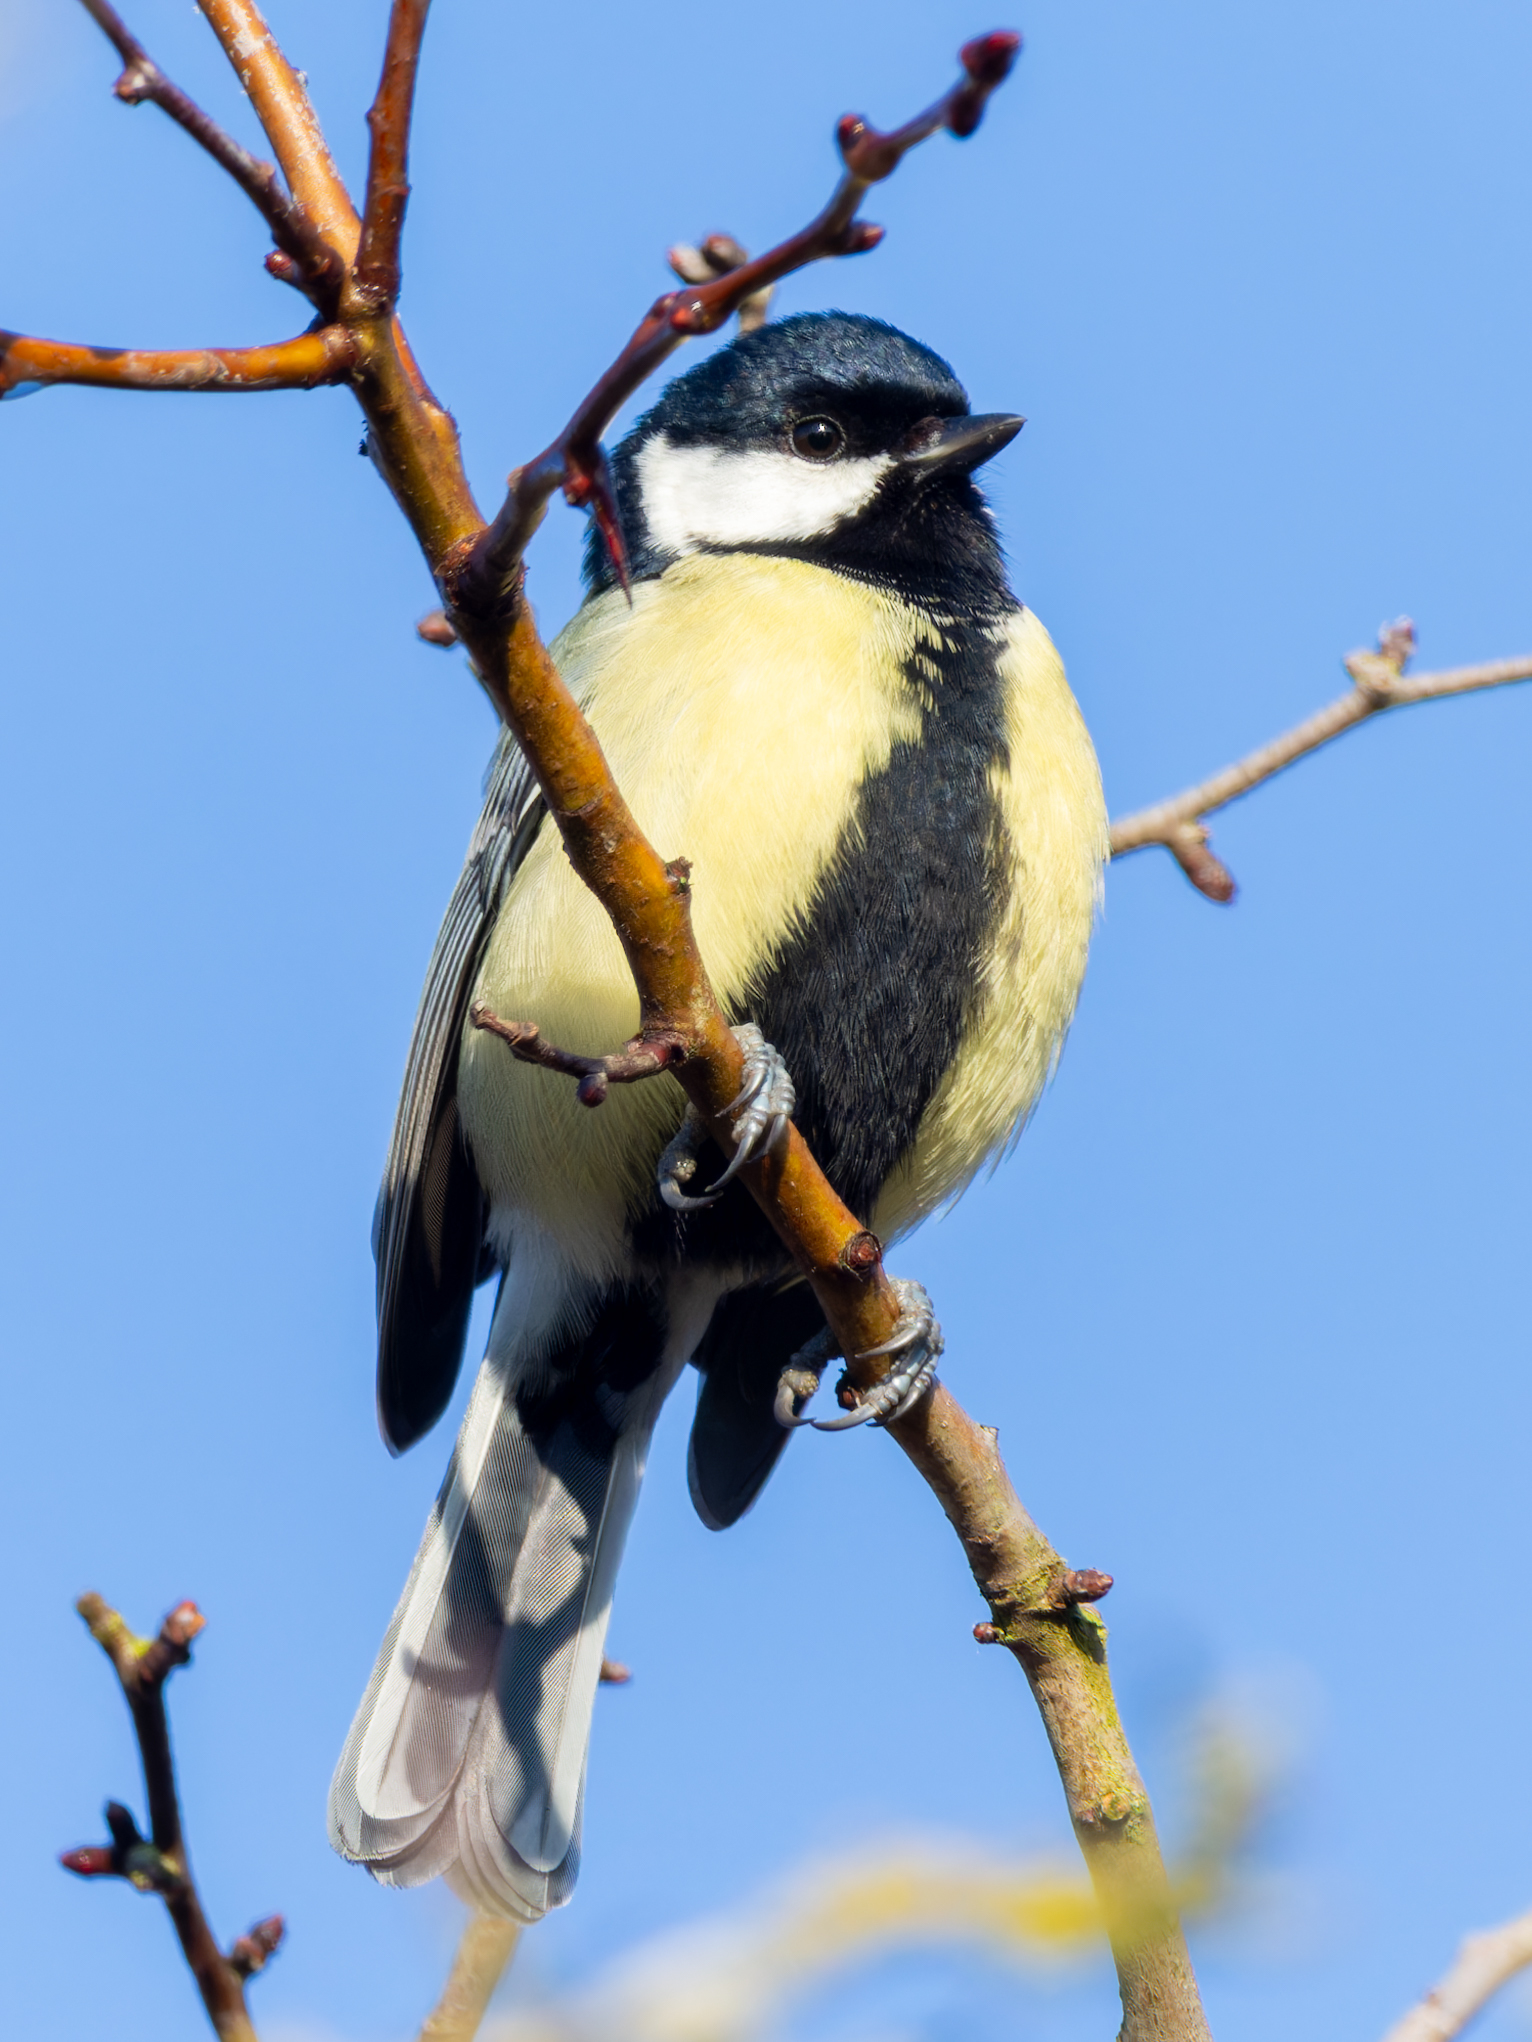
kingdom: Animalia
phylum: Chordata
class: Aves
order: Passeriformes
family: Paridae
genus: Parus
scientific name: Parus major
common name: Great tit
